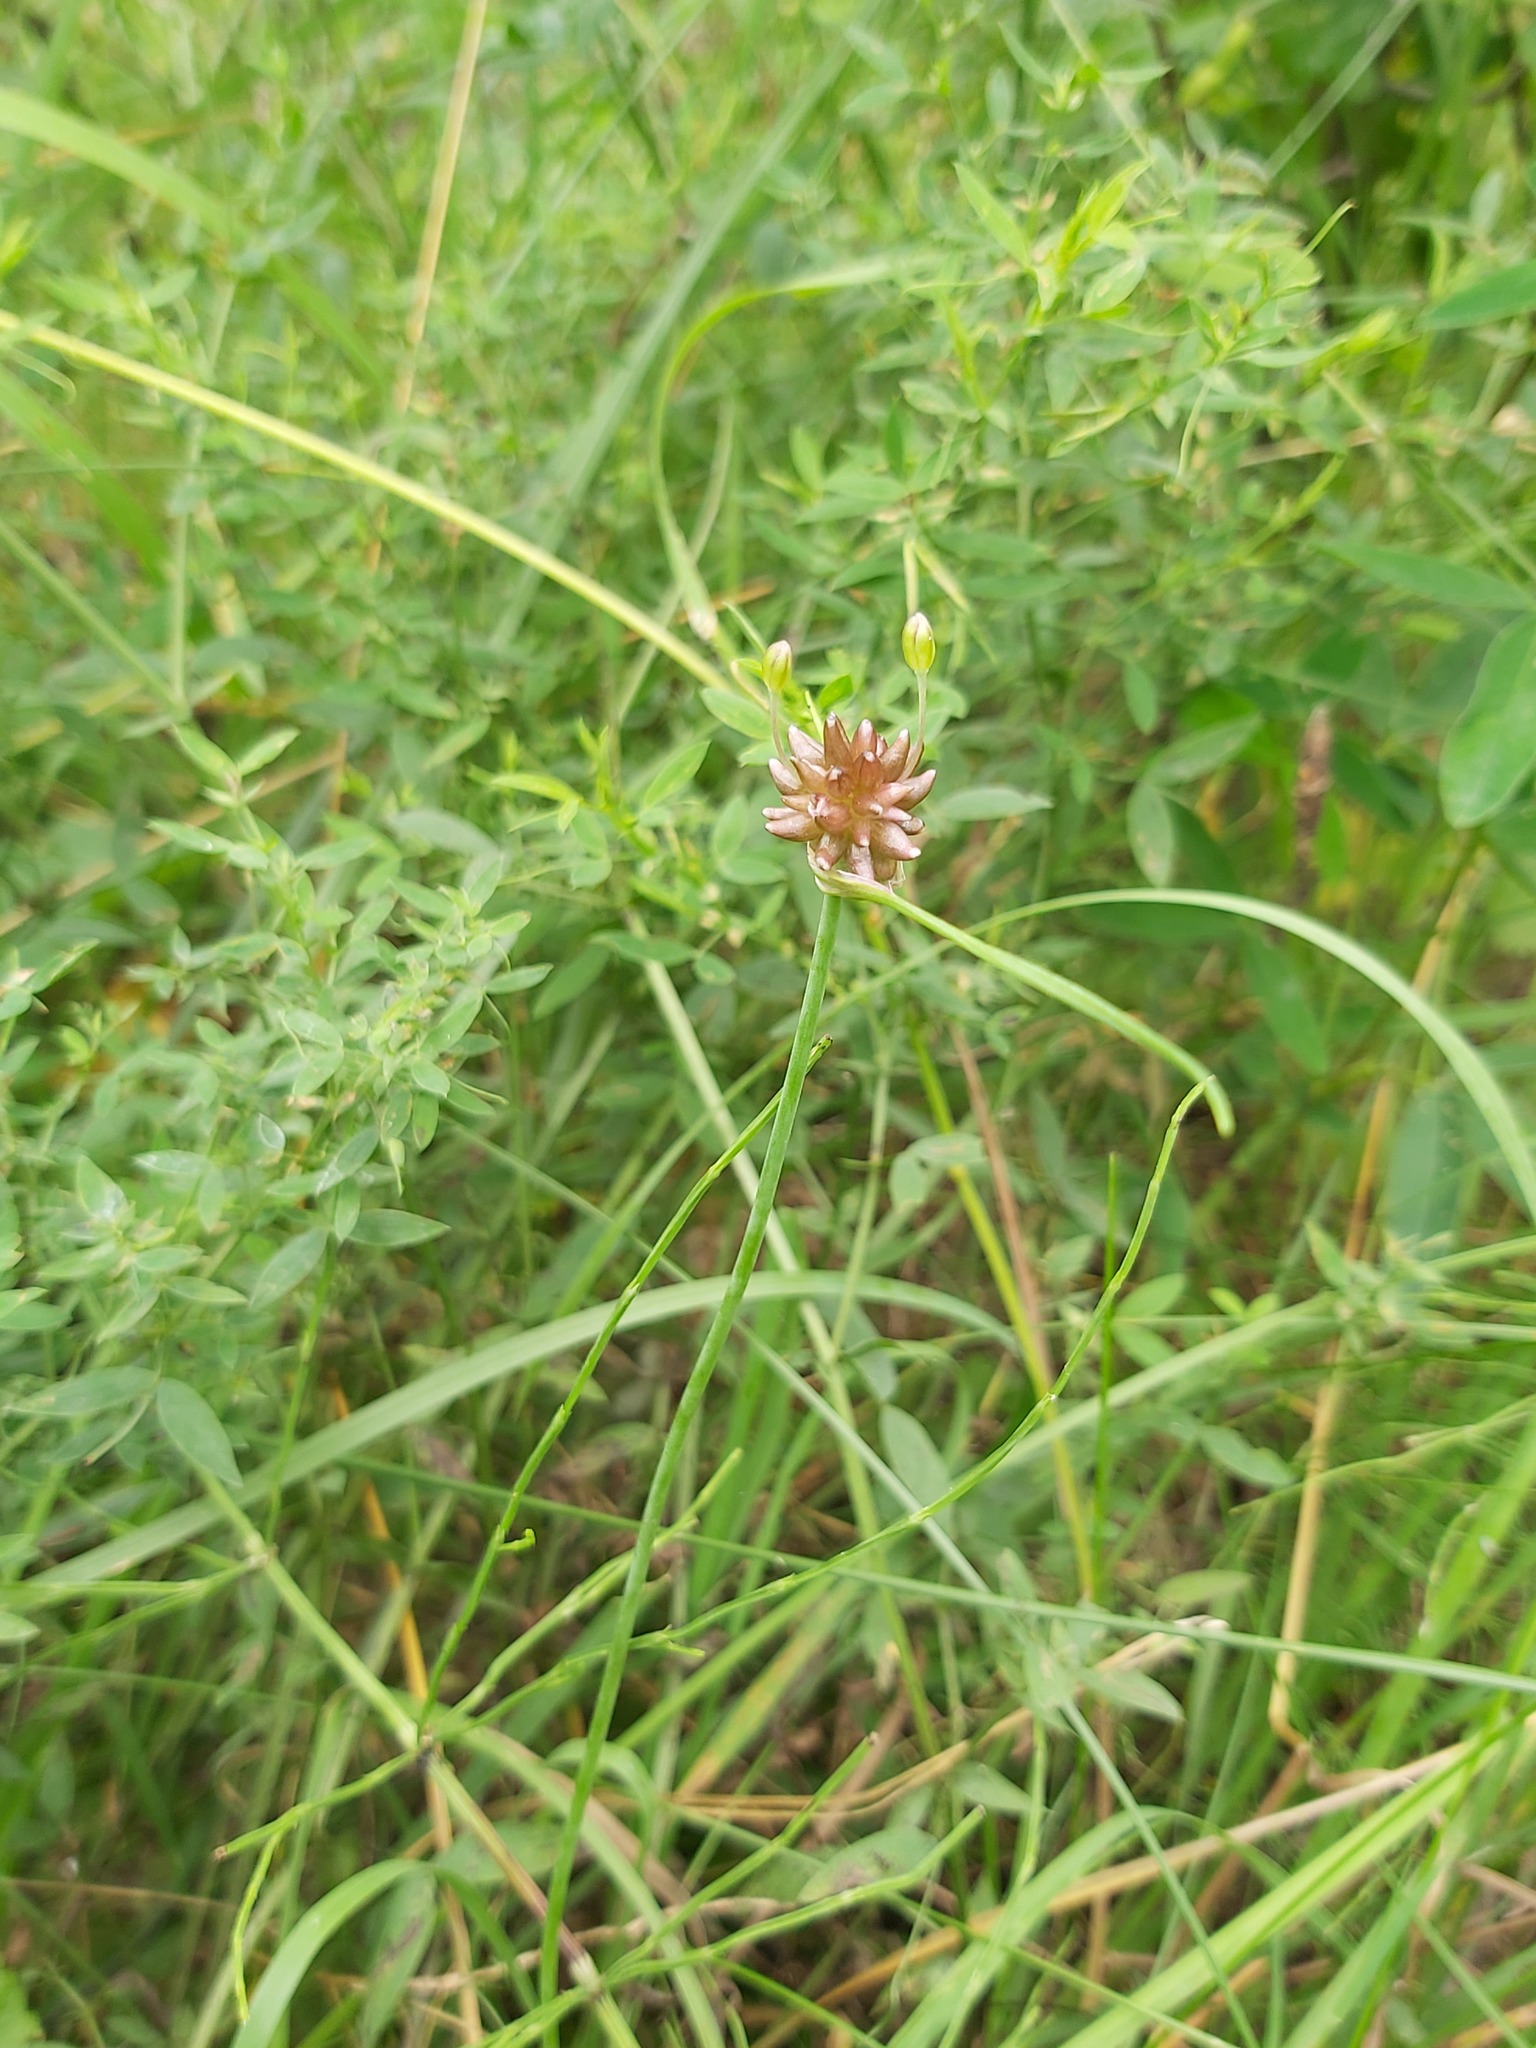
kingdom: Plantae
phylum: Tracheophyta
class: Liliopsida
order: Asparagales
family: Amaryllidaceae
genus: Allium
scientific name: Allium oleraceum
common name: Field garlic
